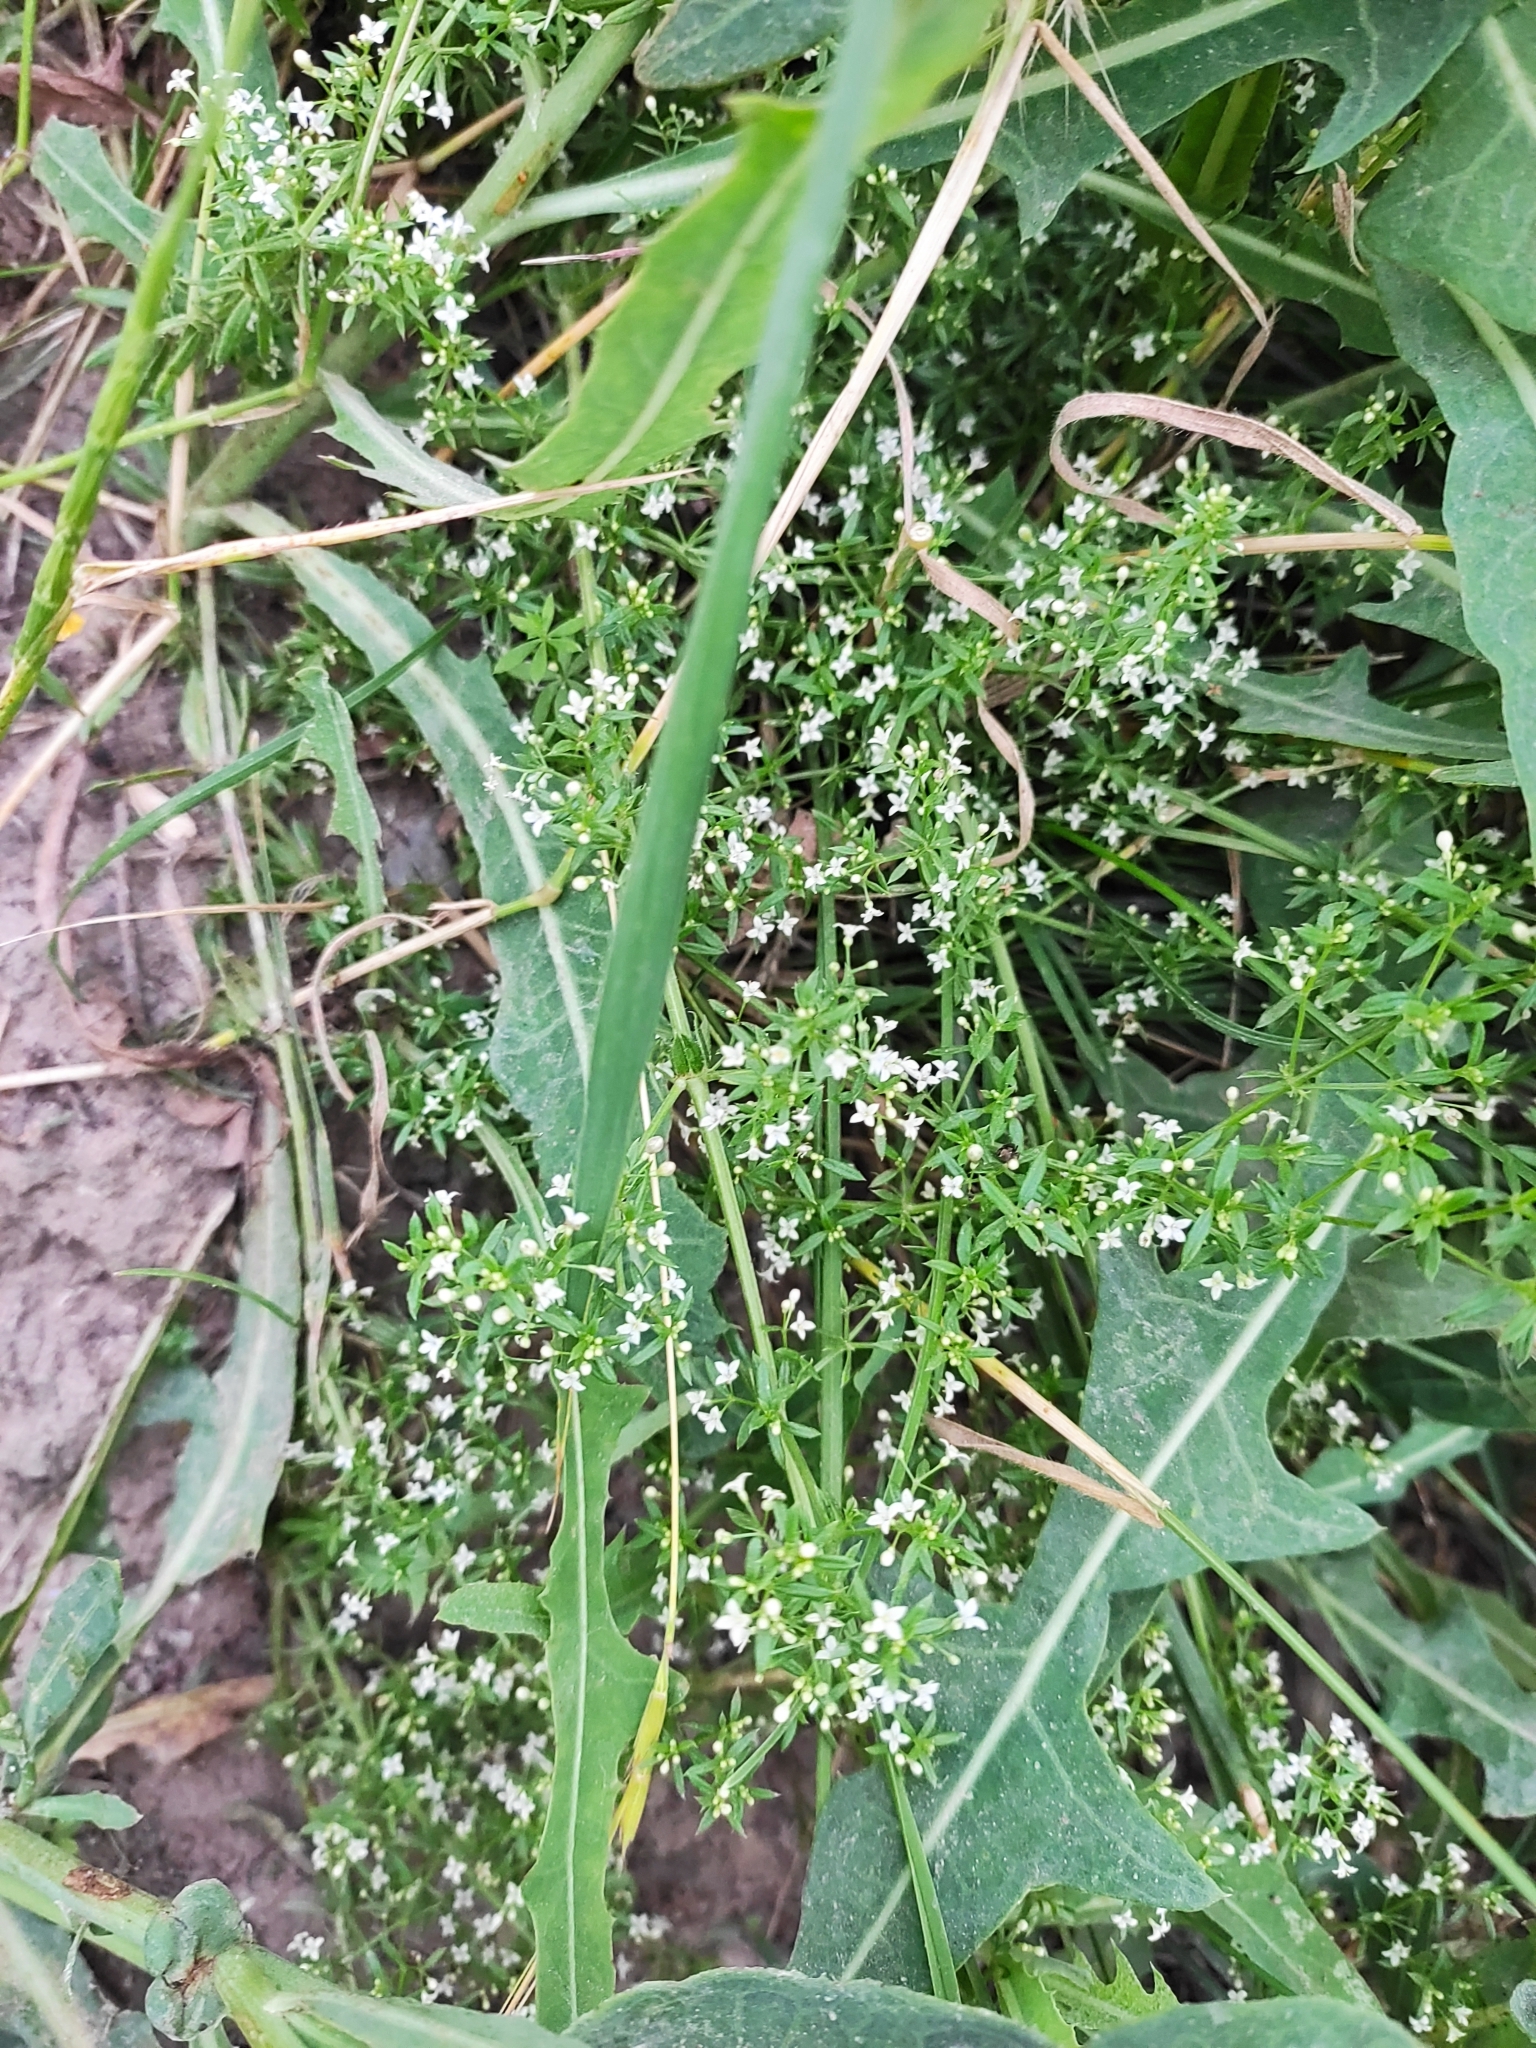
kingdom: Plantae
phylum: Tracheophyta
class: Magnoliopsida
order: Gentianales
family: Rubiaceae
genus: Galium
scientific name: Galium humifusum
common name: Spreading bedstraw
